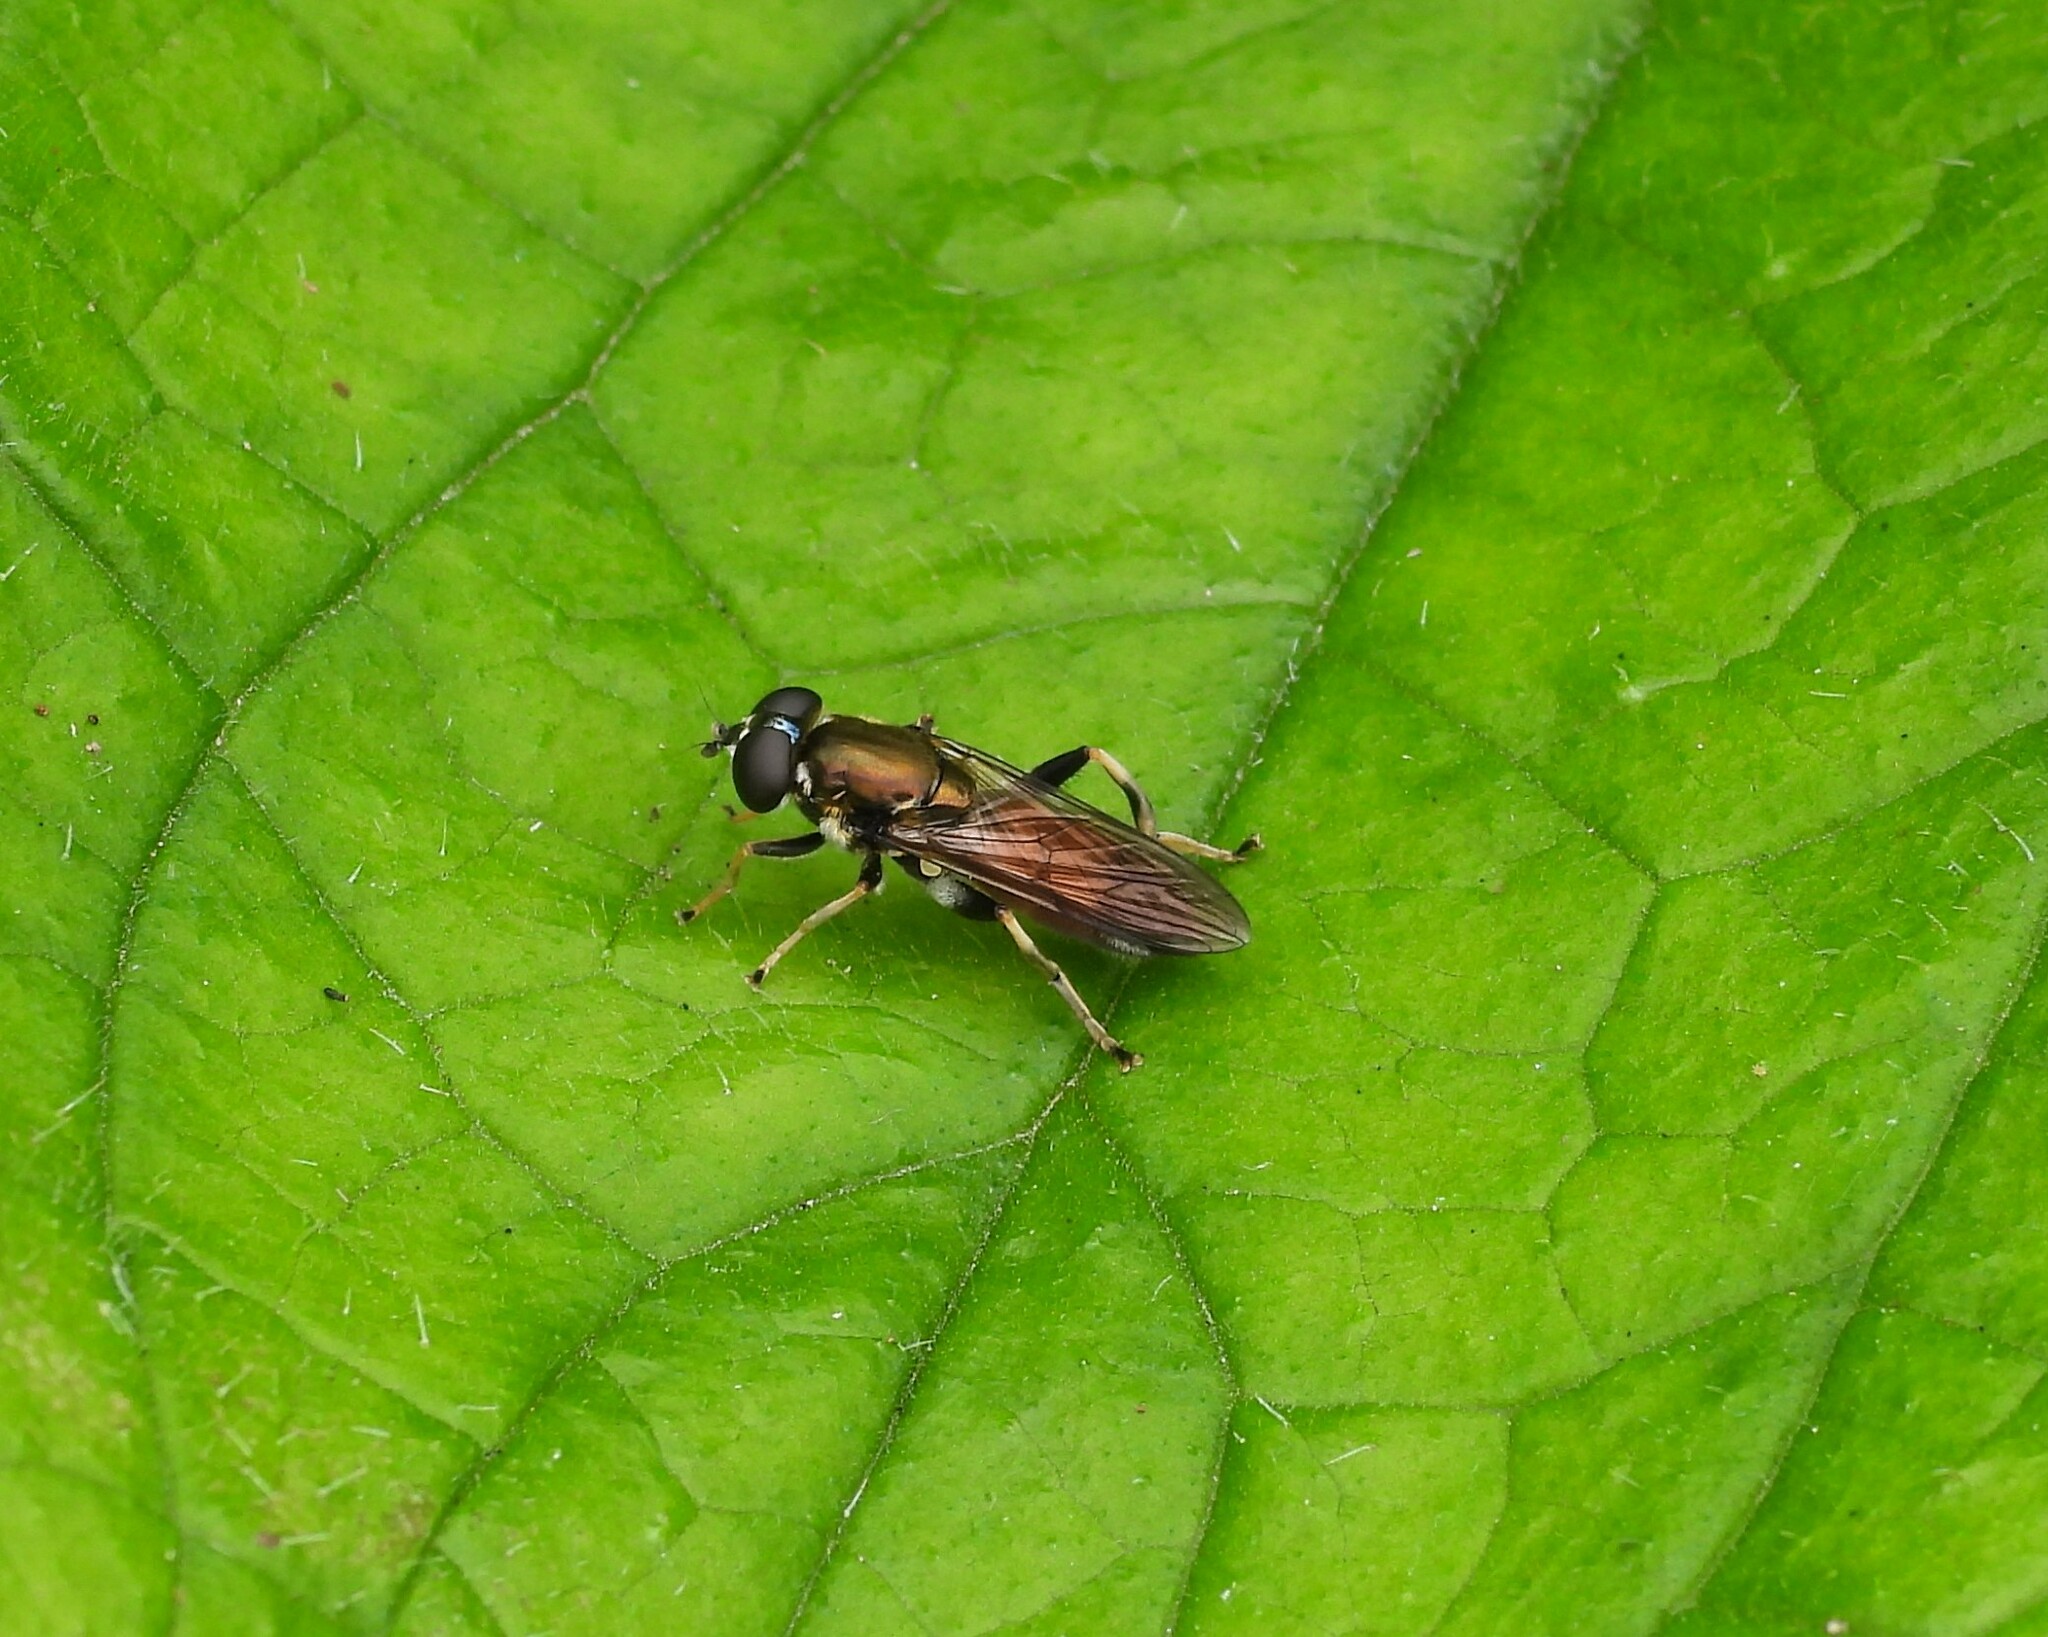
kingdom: Animalia
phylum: Arthropoda
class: Insecta
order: Diptera
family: Syrphidae
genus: Xylota
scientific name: Xylota segnis
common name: Brown-toed forest fly
